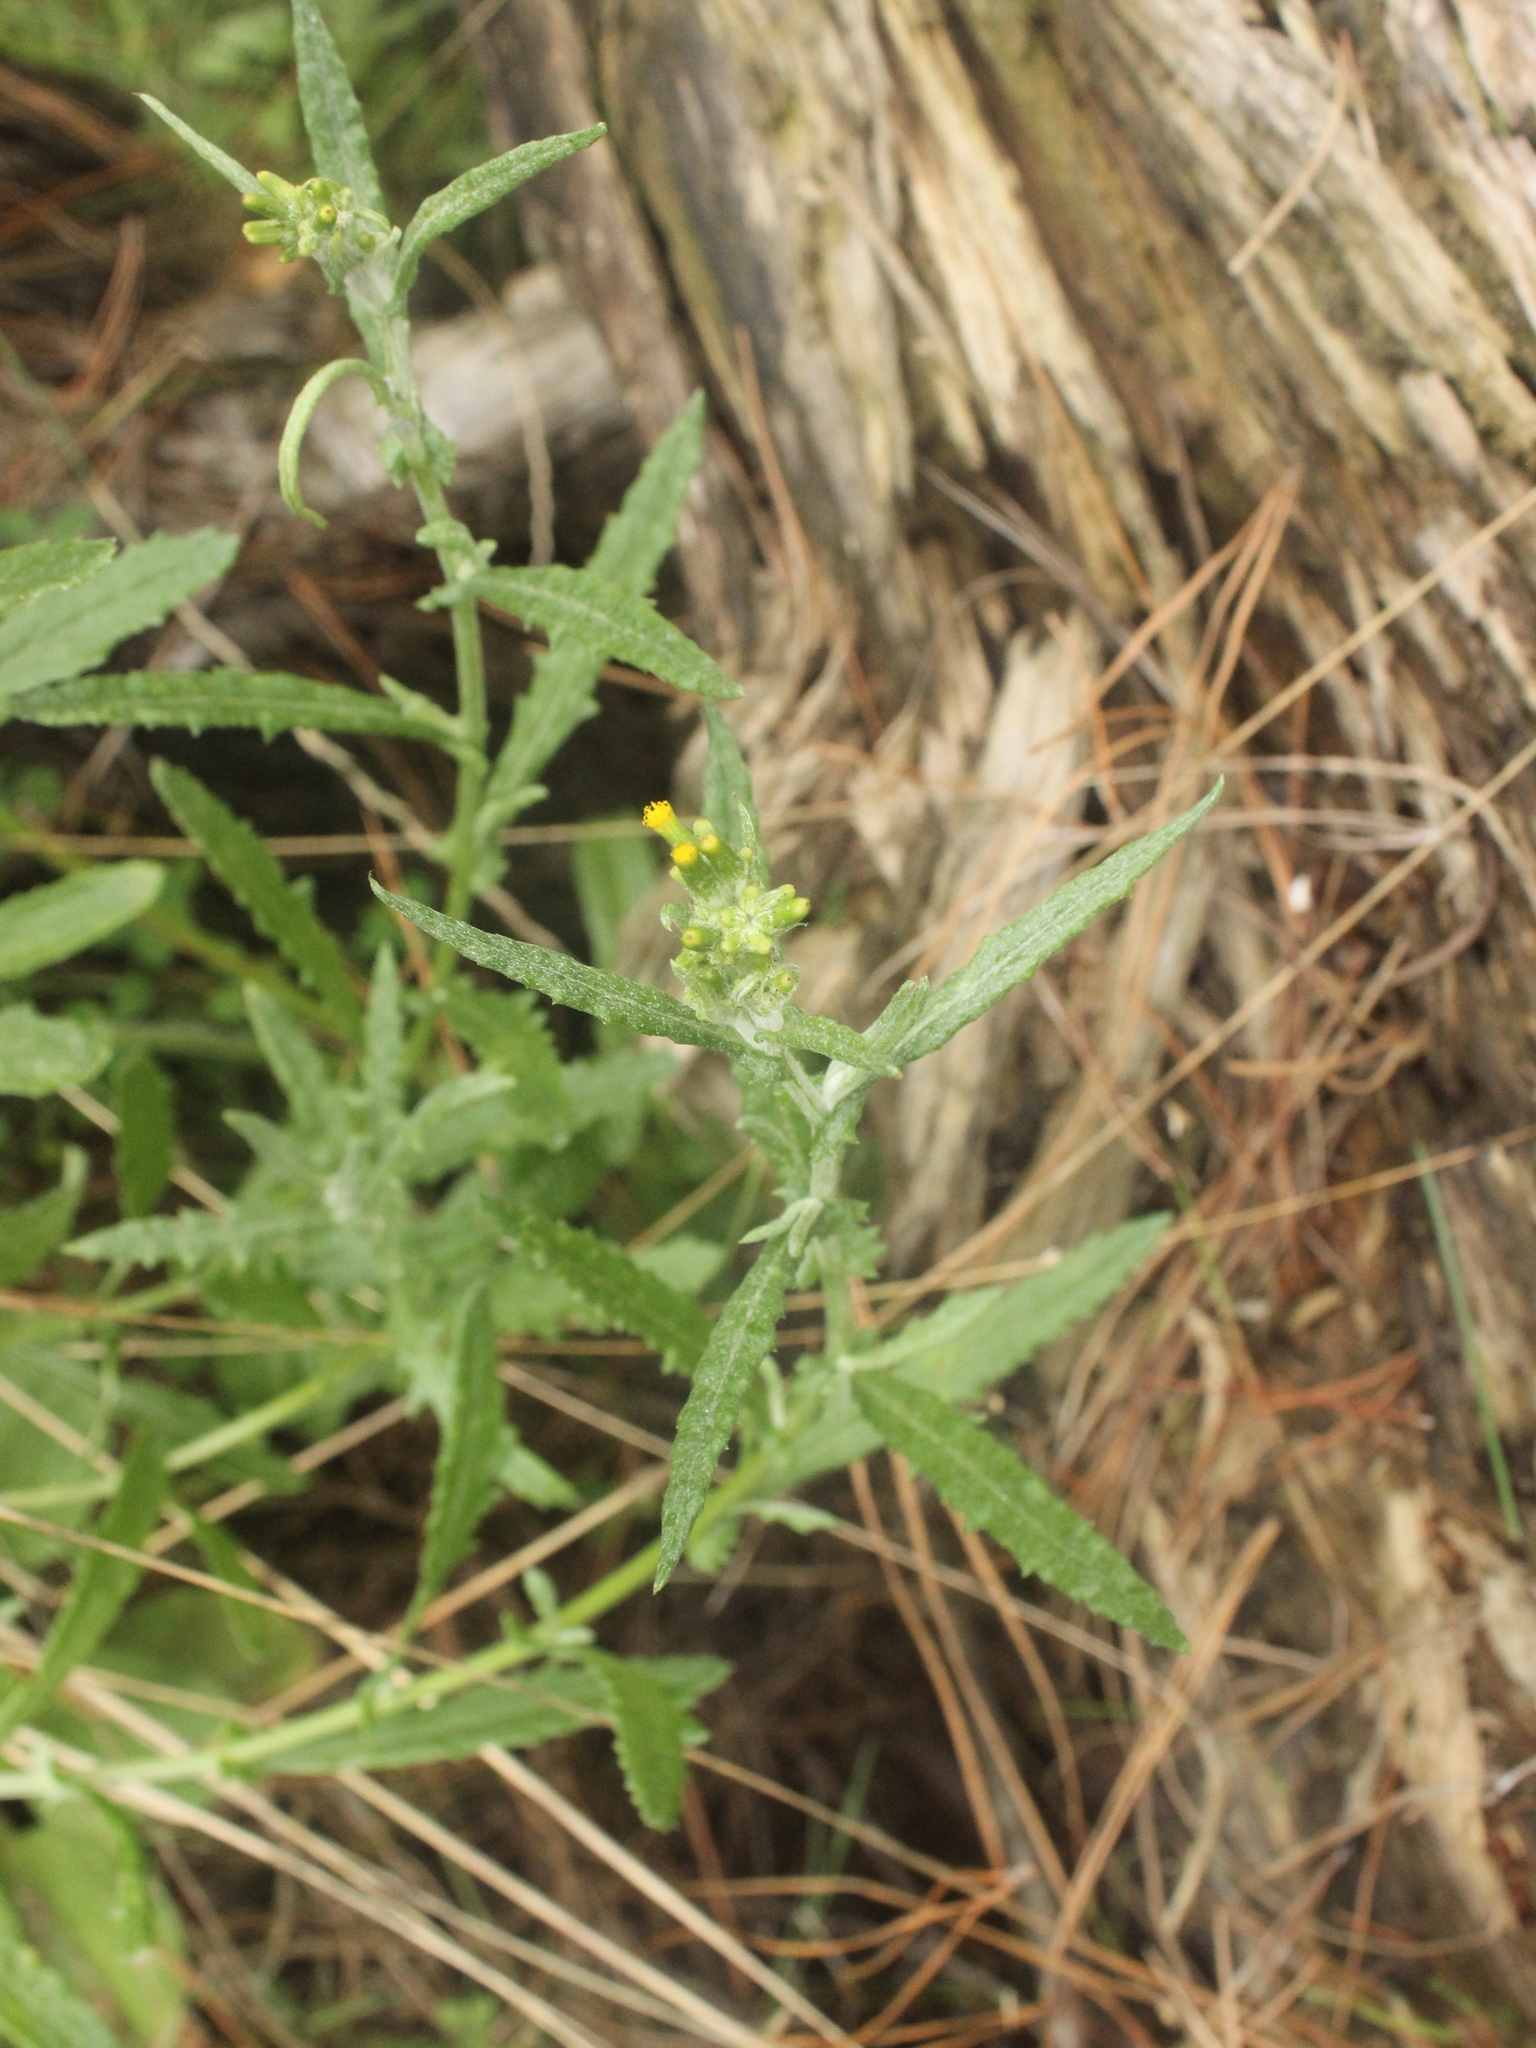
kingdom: Plantae
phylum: Tracheophyta
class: Magnoliopsida
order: Asterales
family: Asteraceae
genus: Senecio
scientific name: Senecio hispidulus
